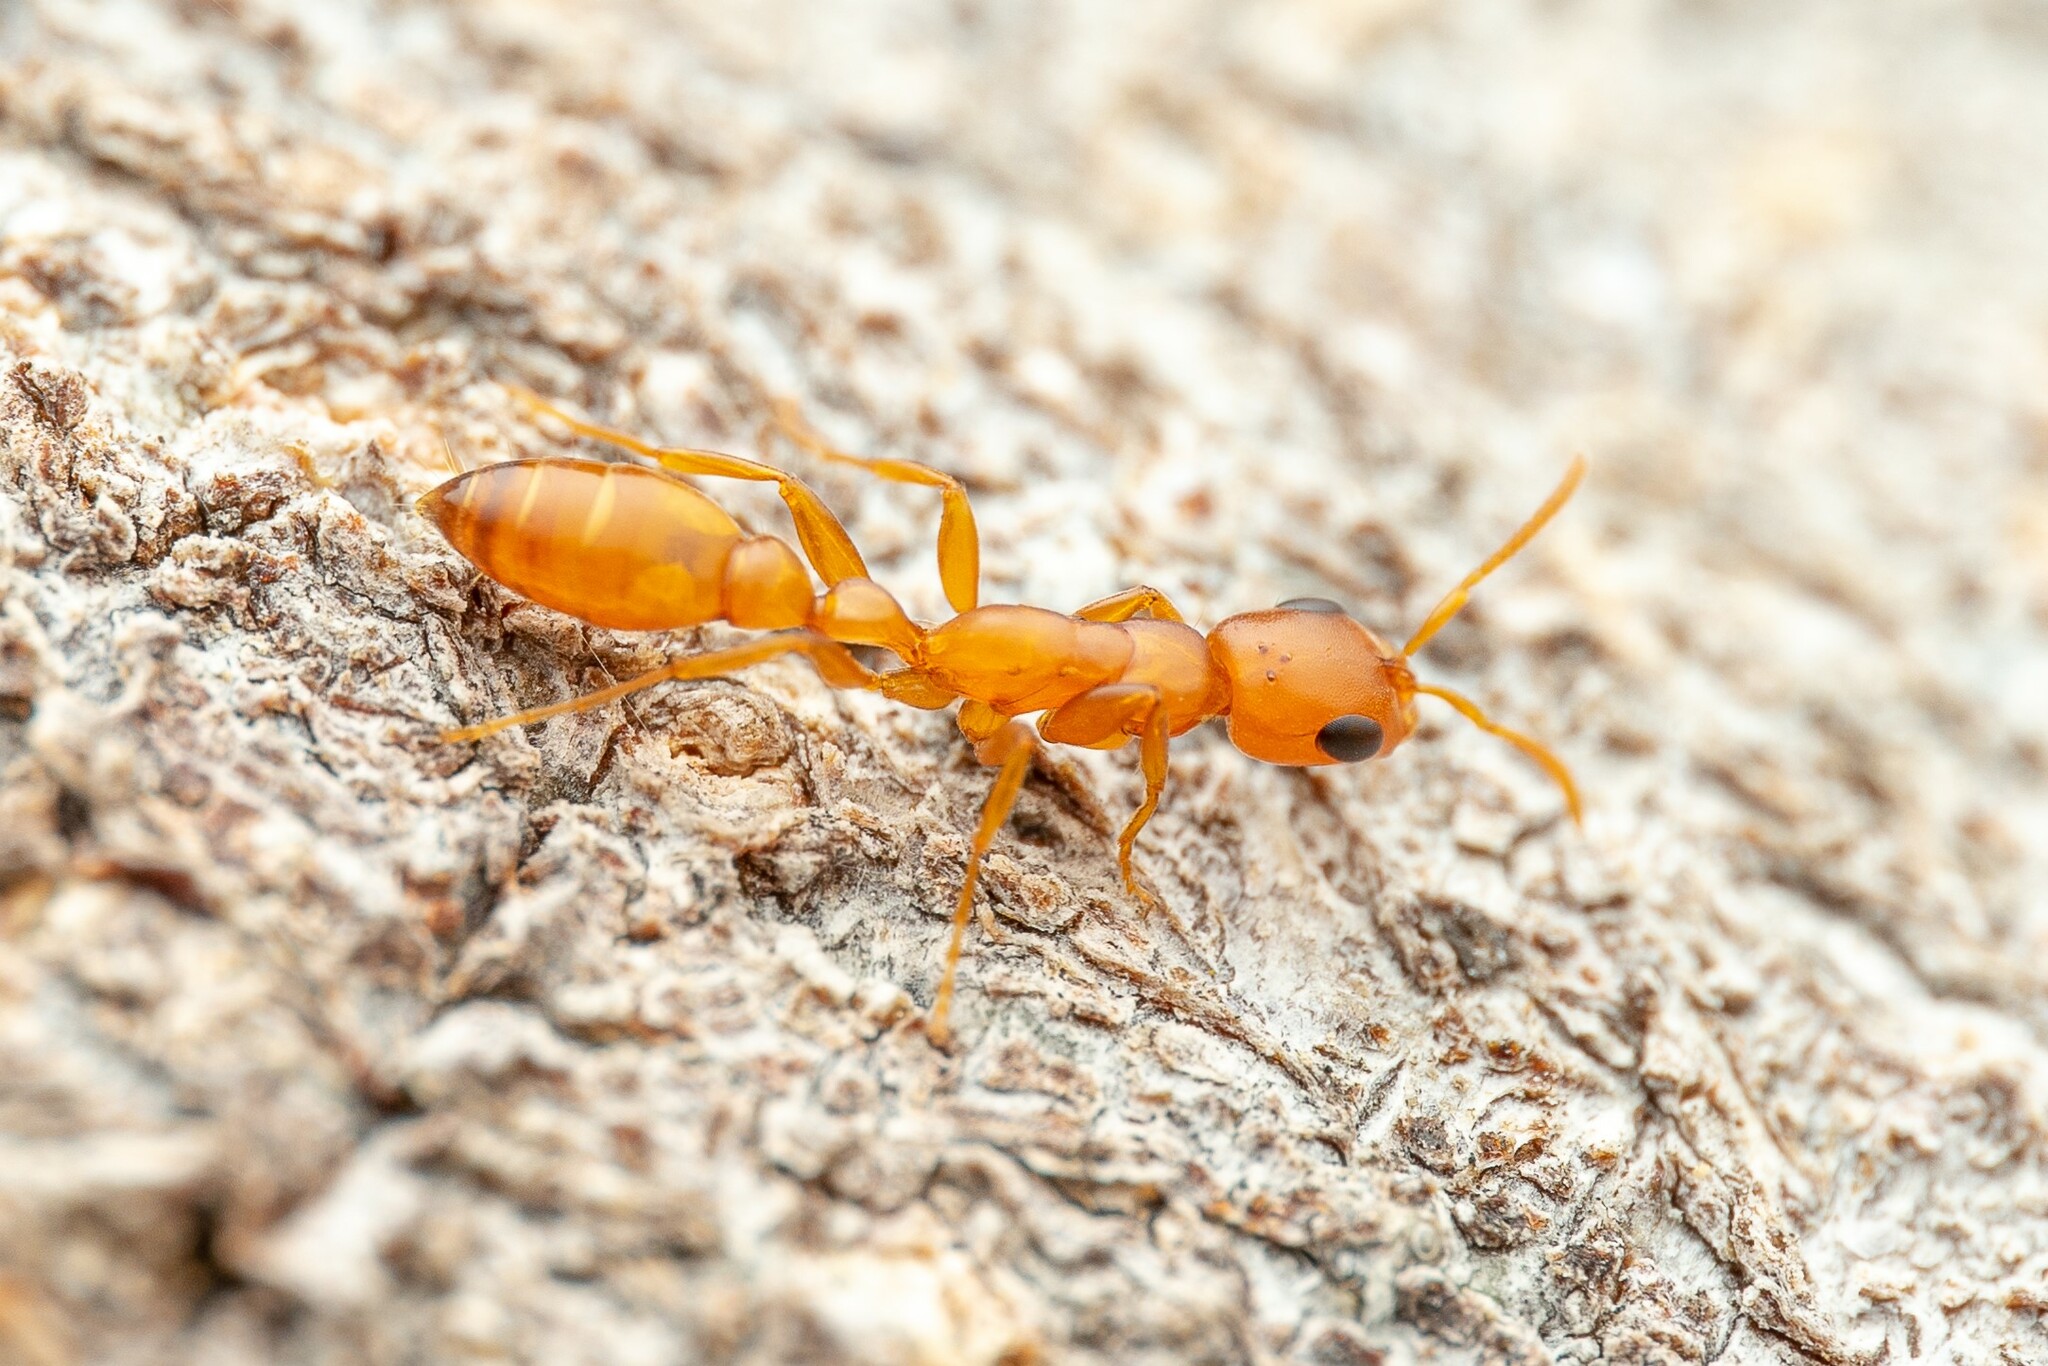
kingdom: Animalia
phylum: Arthropoda
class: Insecta
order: Hymenoptera
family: Formicidae
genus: Pseudomyrmex
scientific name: Pseudomyrmex apache
